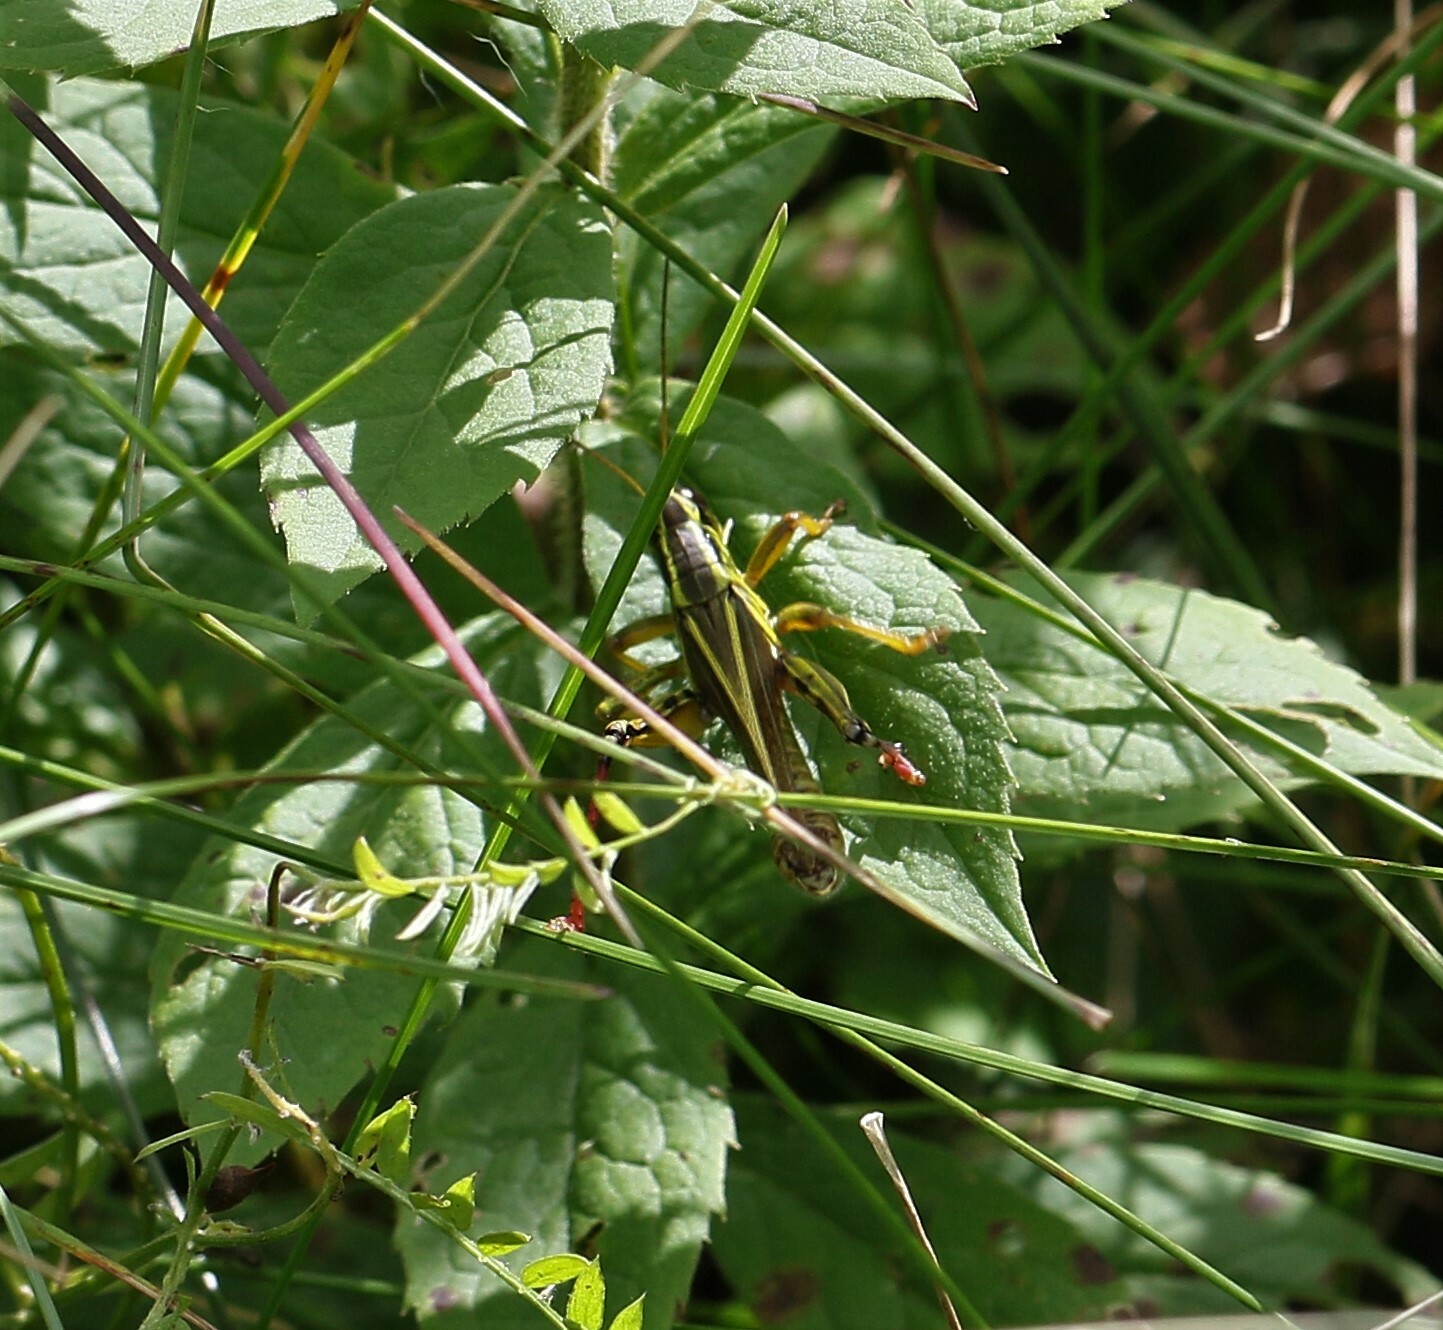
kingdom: Animalia
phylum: Arthropoda
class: Insecta
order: Orthoptera
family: Acrididae
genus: Melanoplus
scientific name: Melanoplus bivittatus
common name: Two-striped grasshopper
